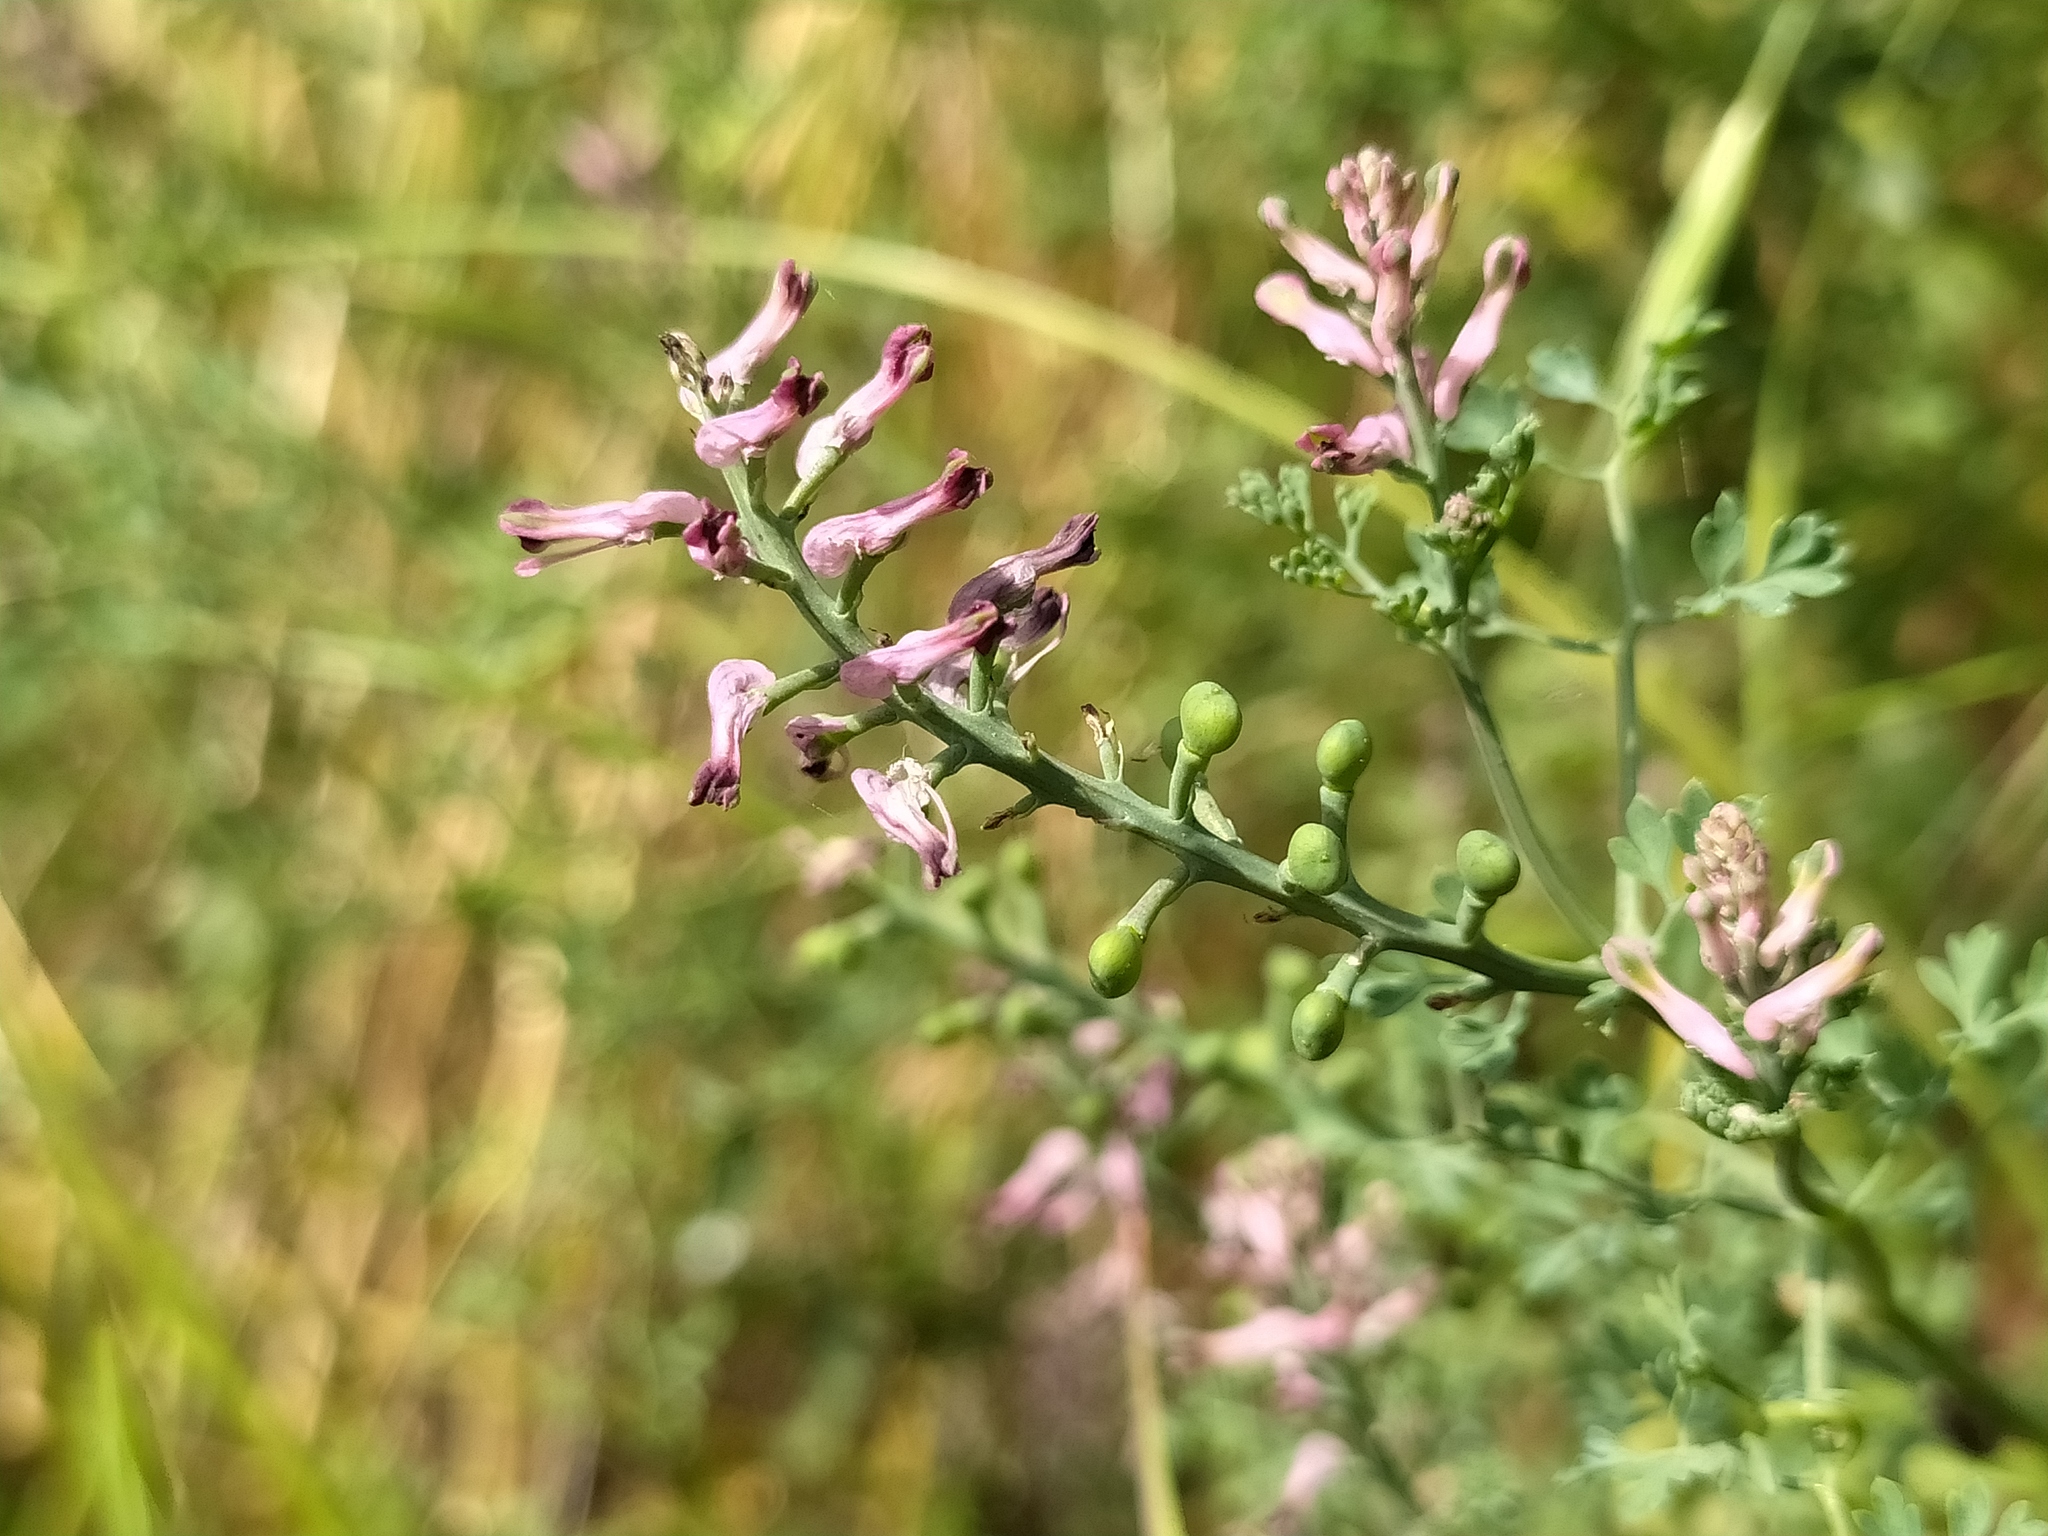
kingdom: Plantae
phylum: Tracheophyta
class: Magnoliopsida
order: Ranunculales
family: Papaveraceae
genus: Fumaria
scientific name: Fumaria wirtgenii
